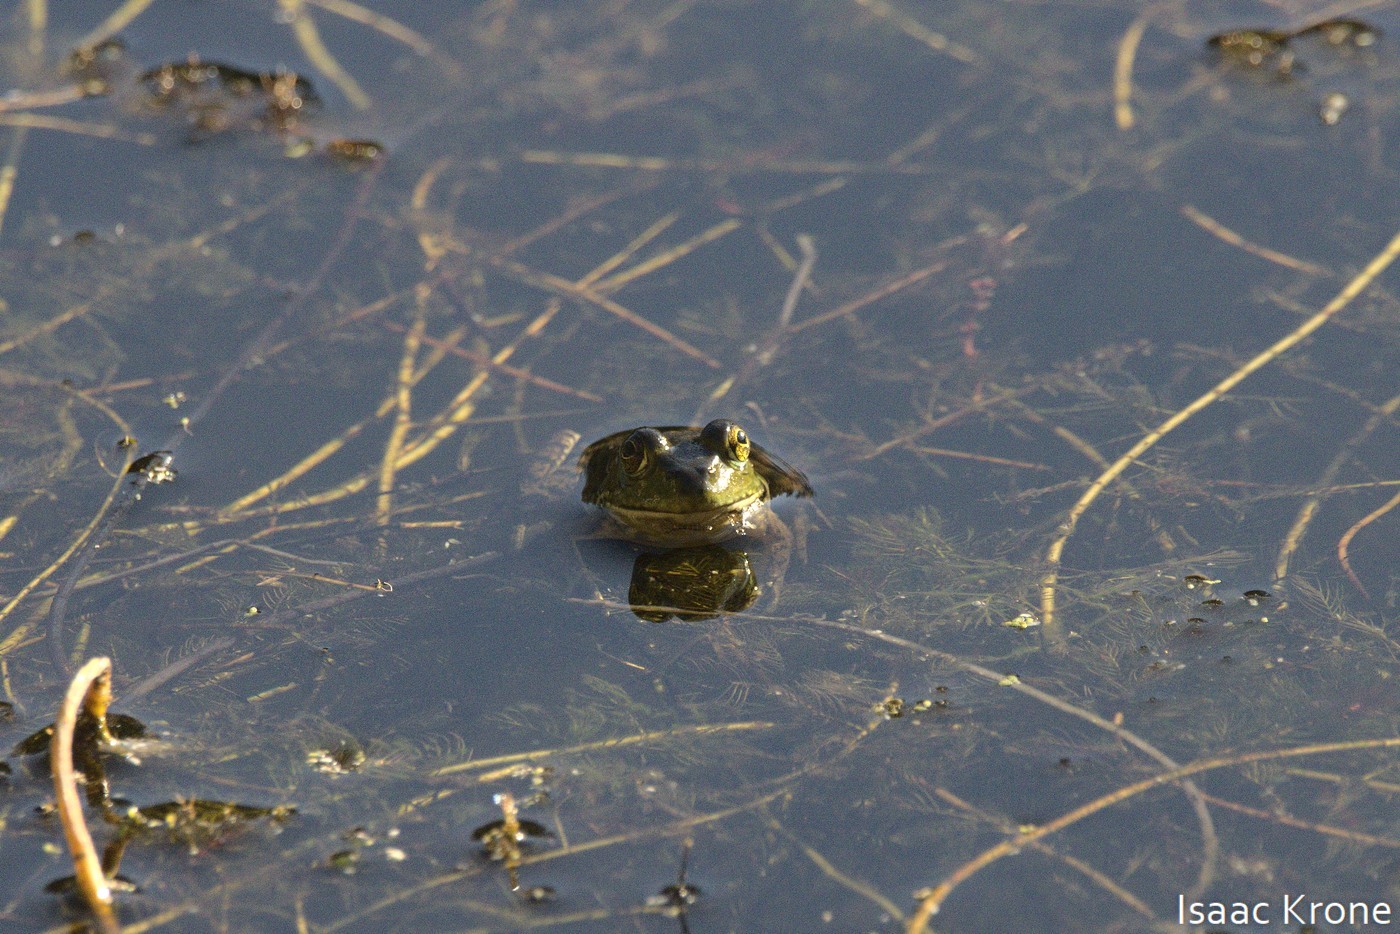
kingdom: Animalia
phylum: Chordata
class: Amphibia
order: Anura
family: Ranidae
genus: Lithobates
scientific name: Lithobates catesbeianus
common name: American bullfrog
